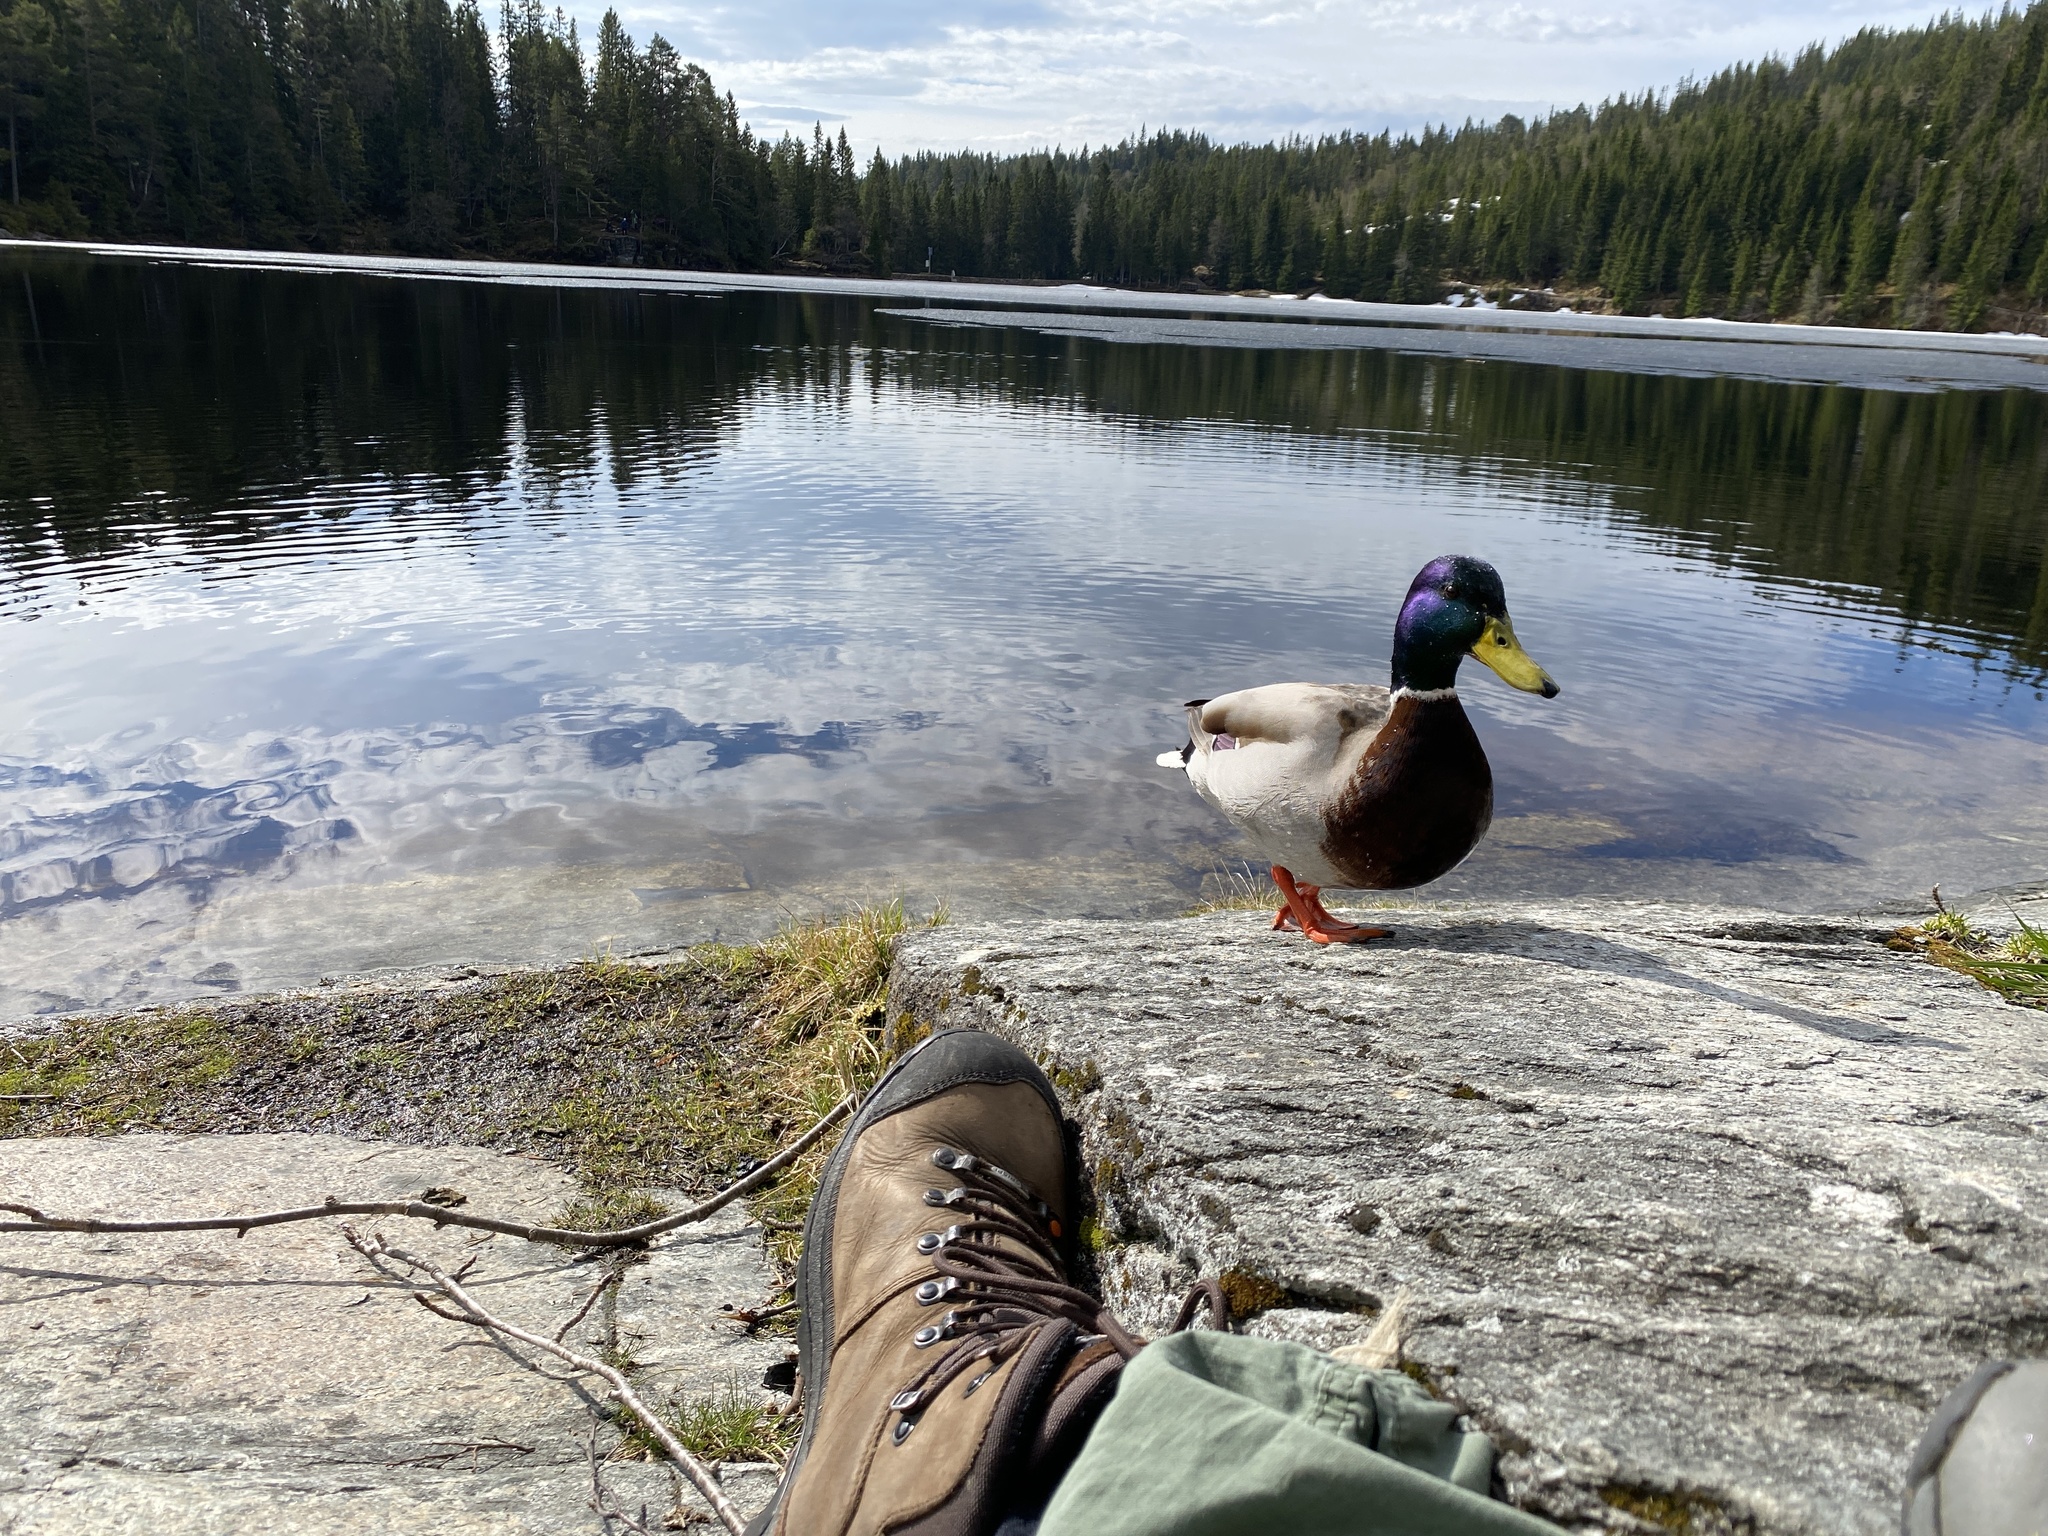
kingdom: Animalia
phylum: Chordata
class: Aves
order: Anseriformes
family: Anatidae
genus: Anas
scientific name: Anas platyrhynchos
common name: Mallard
